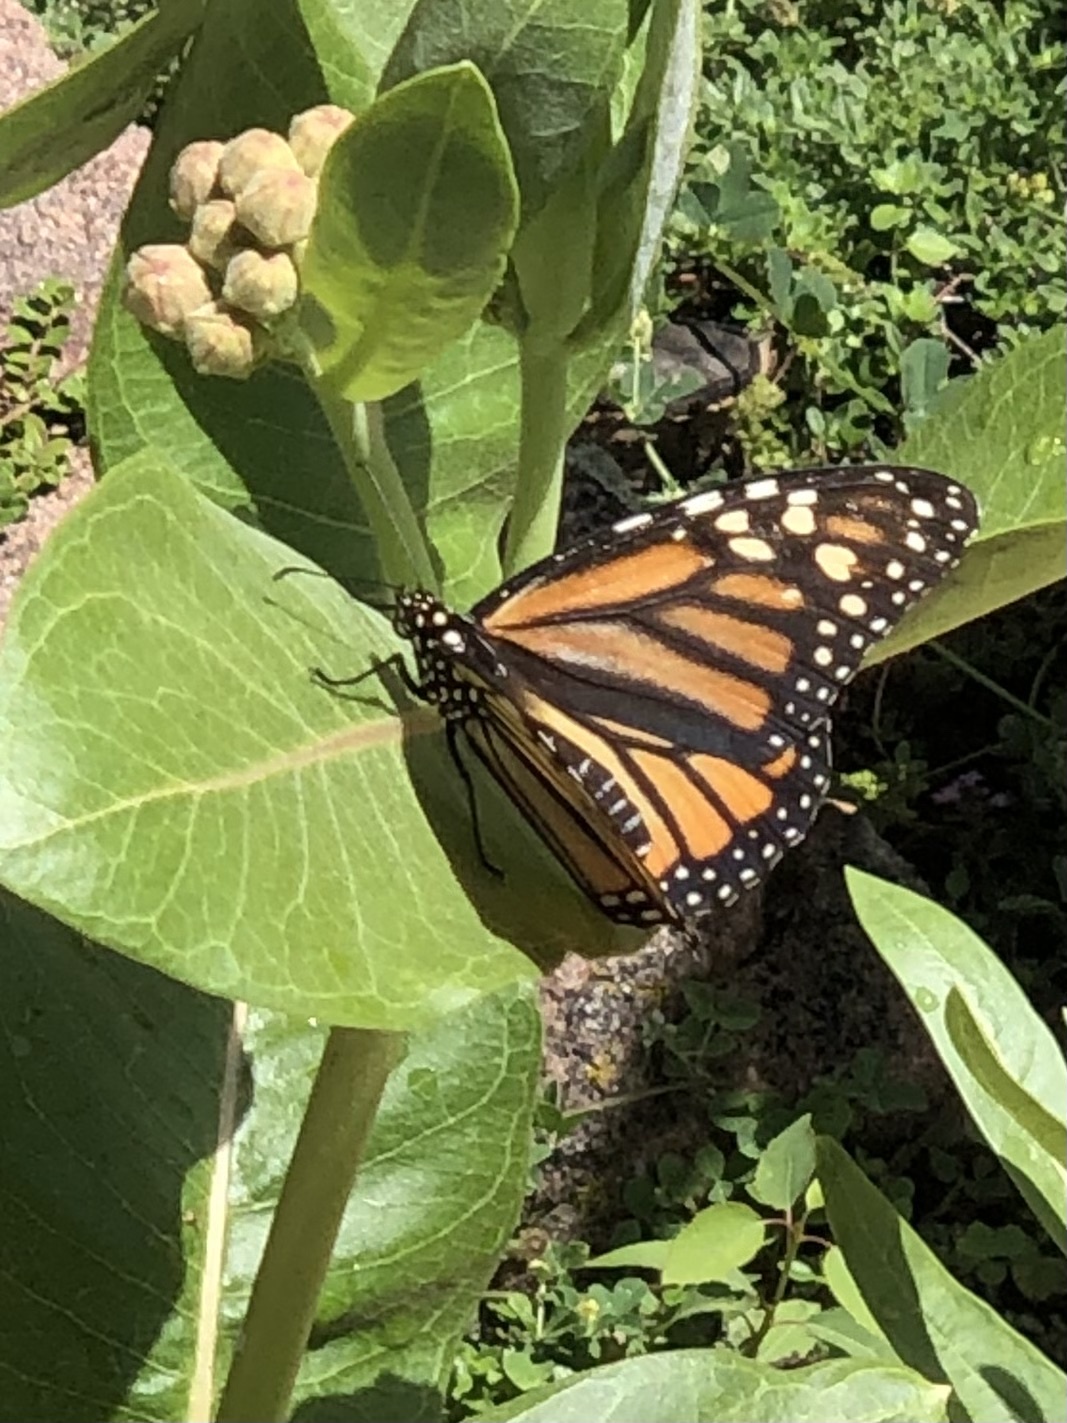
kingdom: Animalia
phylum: Arthropoda
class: Insecta
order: Lepidoptera
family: Nymphalidae
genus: Danaus
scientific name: Danaus plexippus
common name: Monarch
